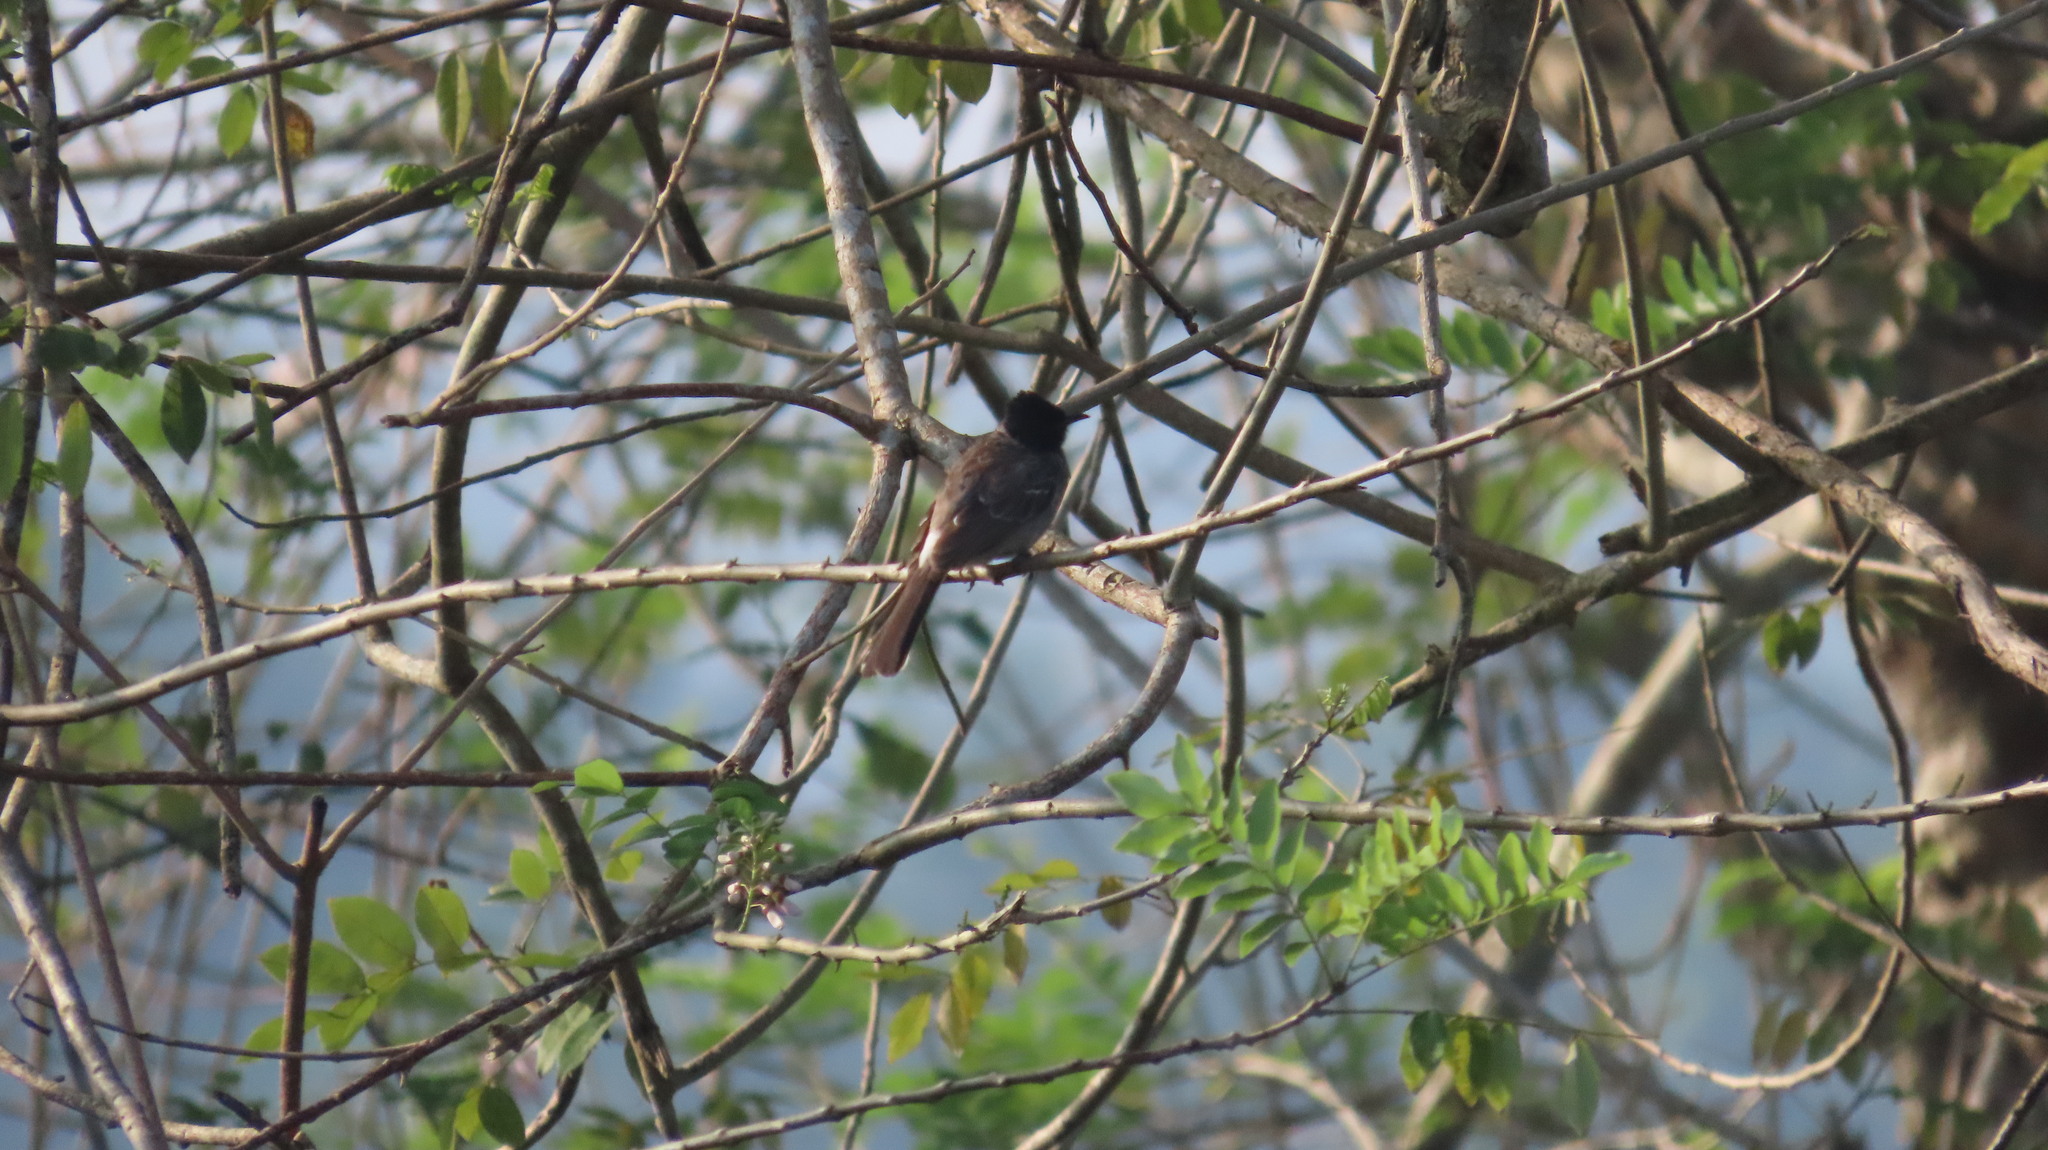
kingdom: Animalia
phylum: Chordata
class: Aves
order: Passeriformes
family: Pycnonotidae
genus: Pycnonotus
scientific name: Pycnonotus cafer
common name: Red-vented bulbul
